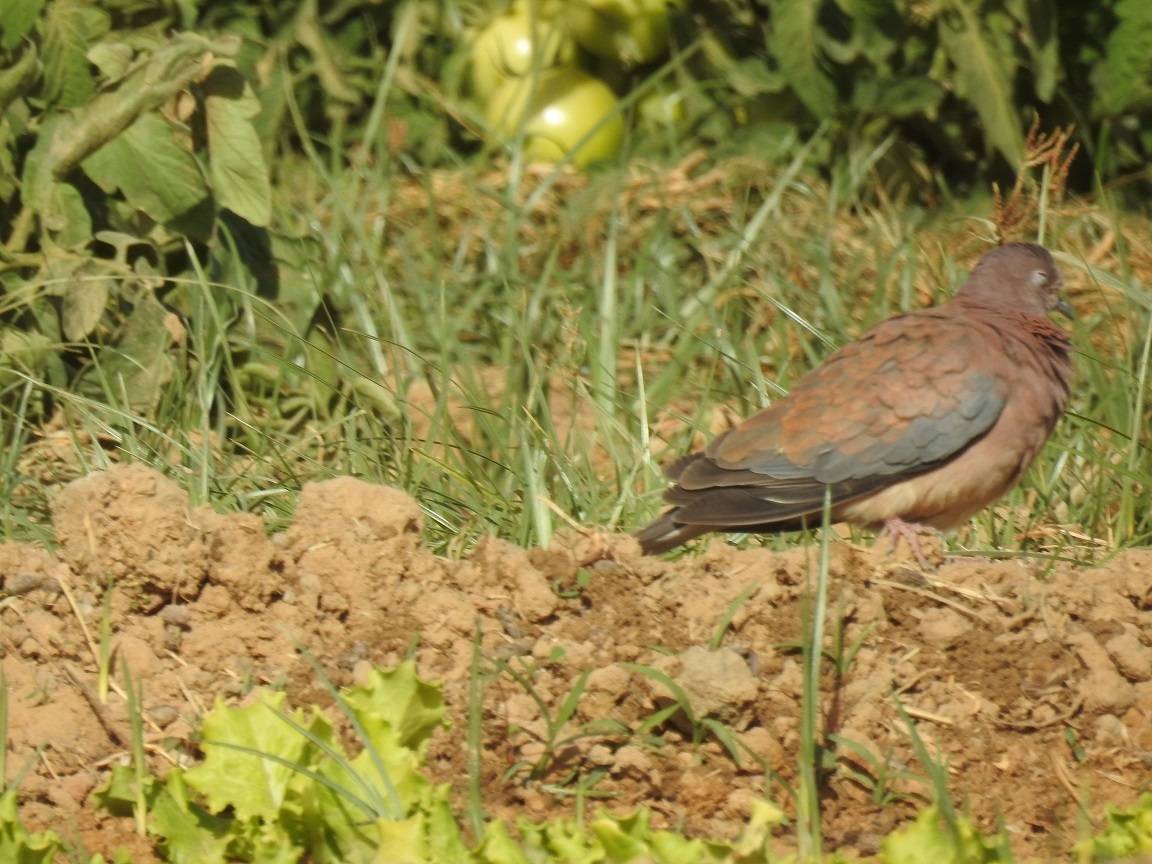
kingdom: Animalia
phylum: Chordata
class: Aves
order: Columbiformes
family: Columbidae
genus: Spilopelia
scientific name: Spilopelia senegalensis
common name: Laughing dove
